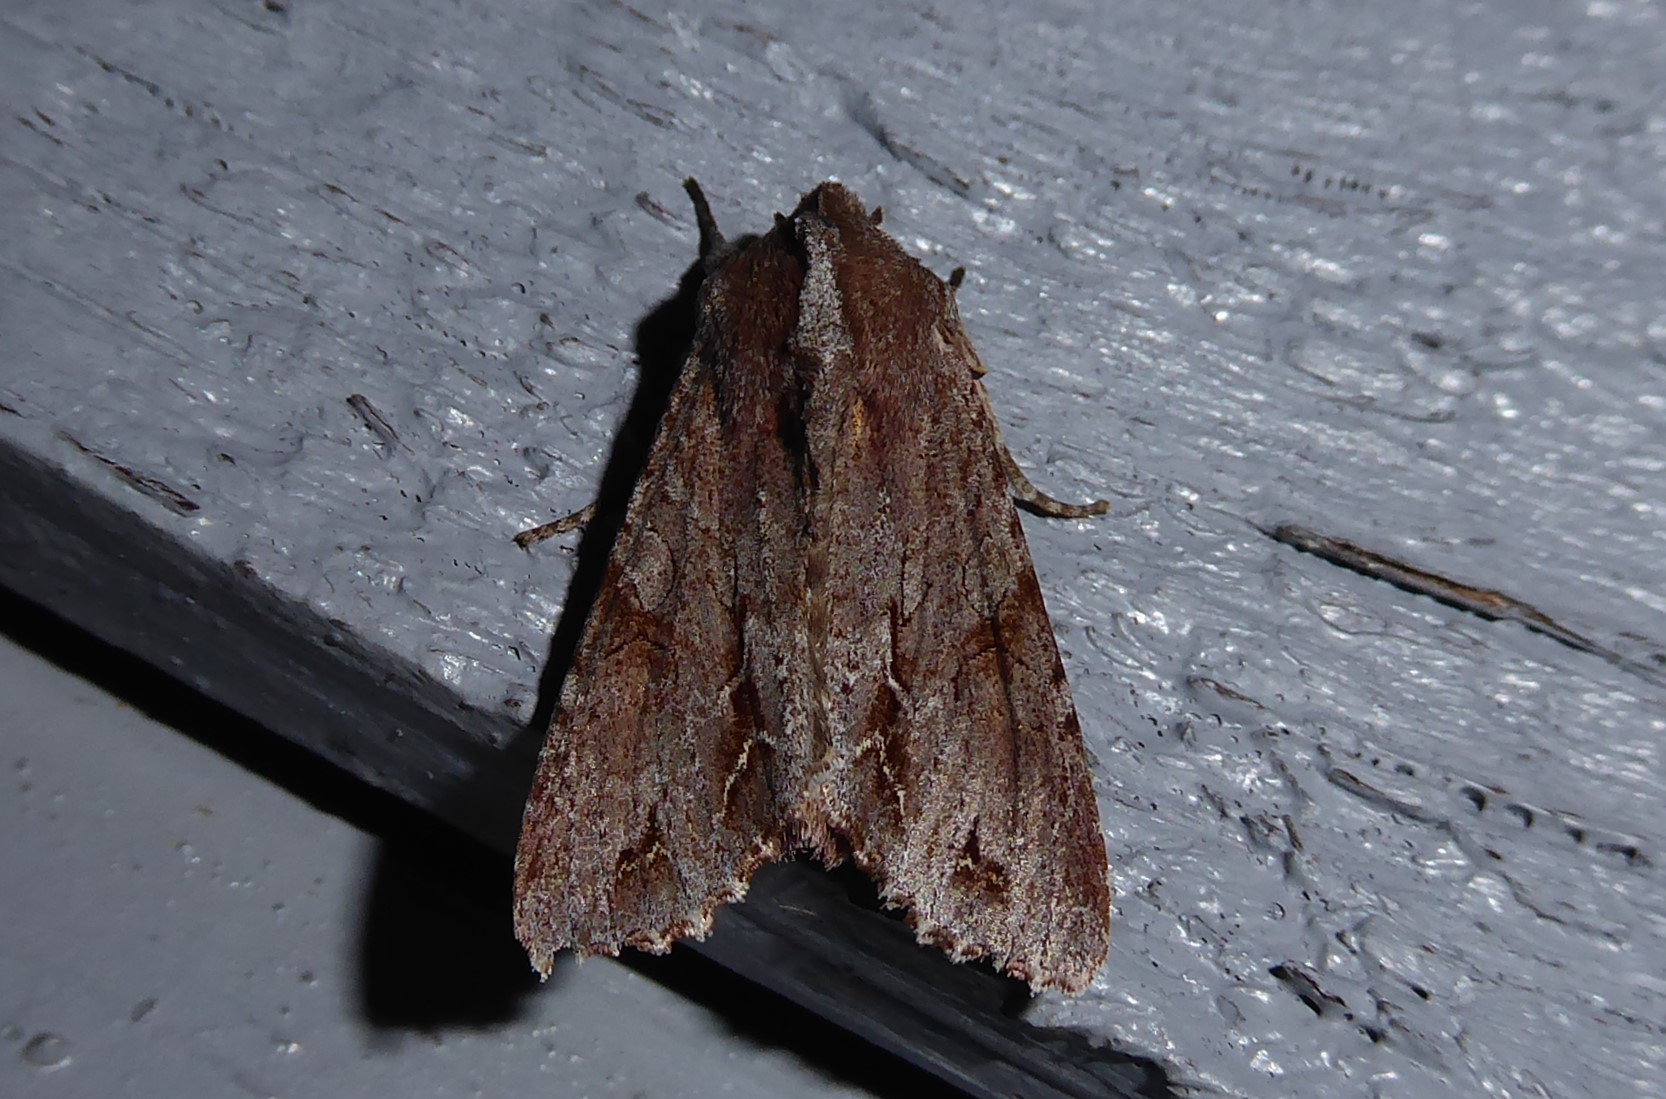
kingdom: Animalia
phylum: Arthropoda
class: Insecta
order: Lepidoptera
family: Noctuidae
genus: Ichneutica
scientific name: Ichneutica
